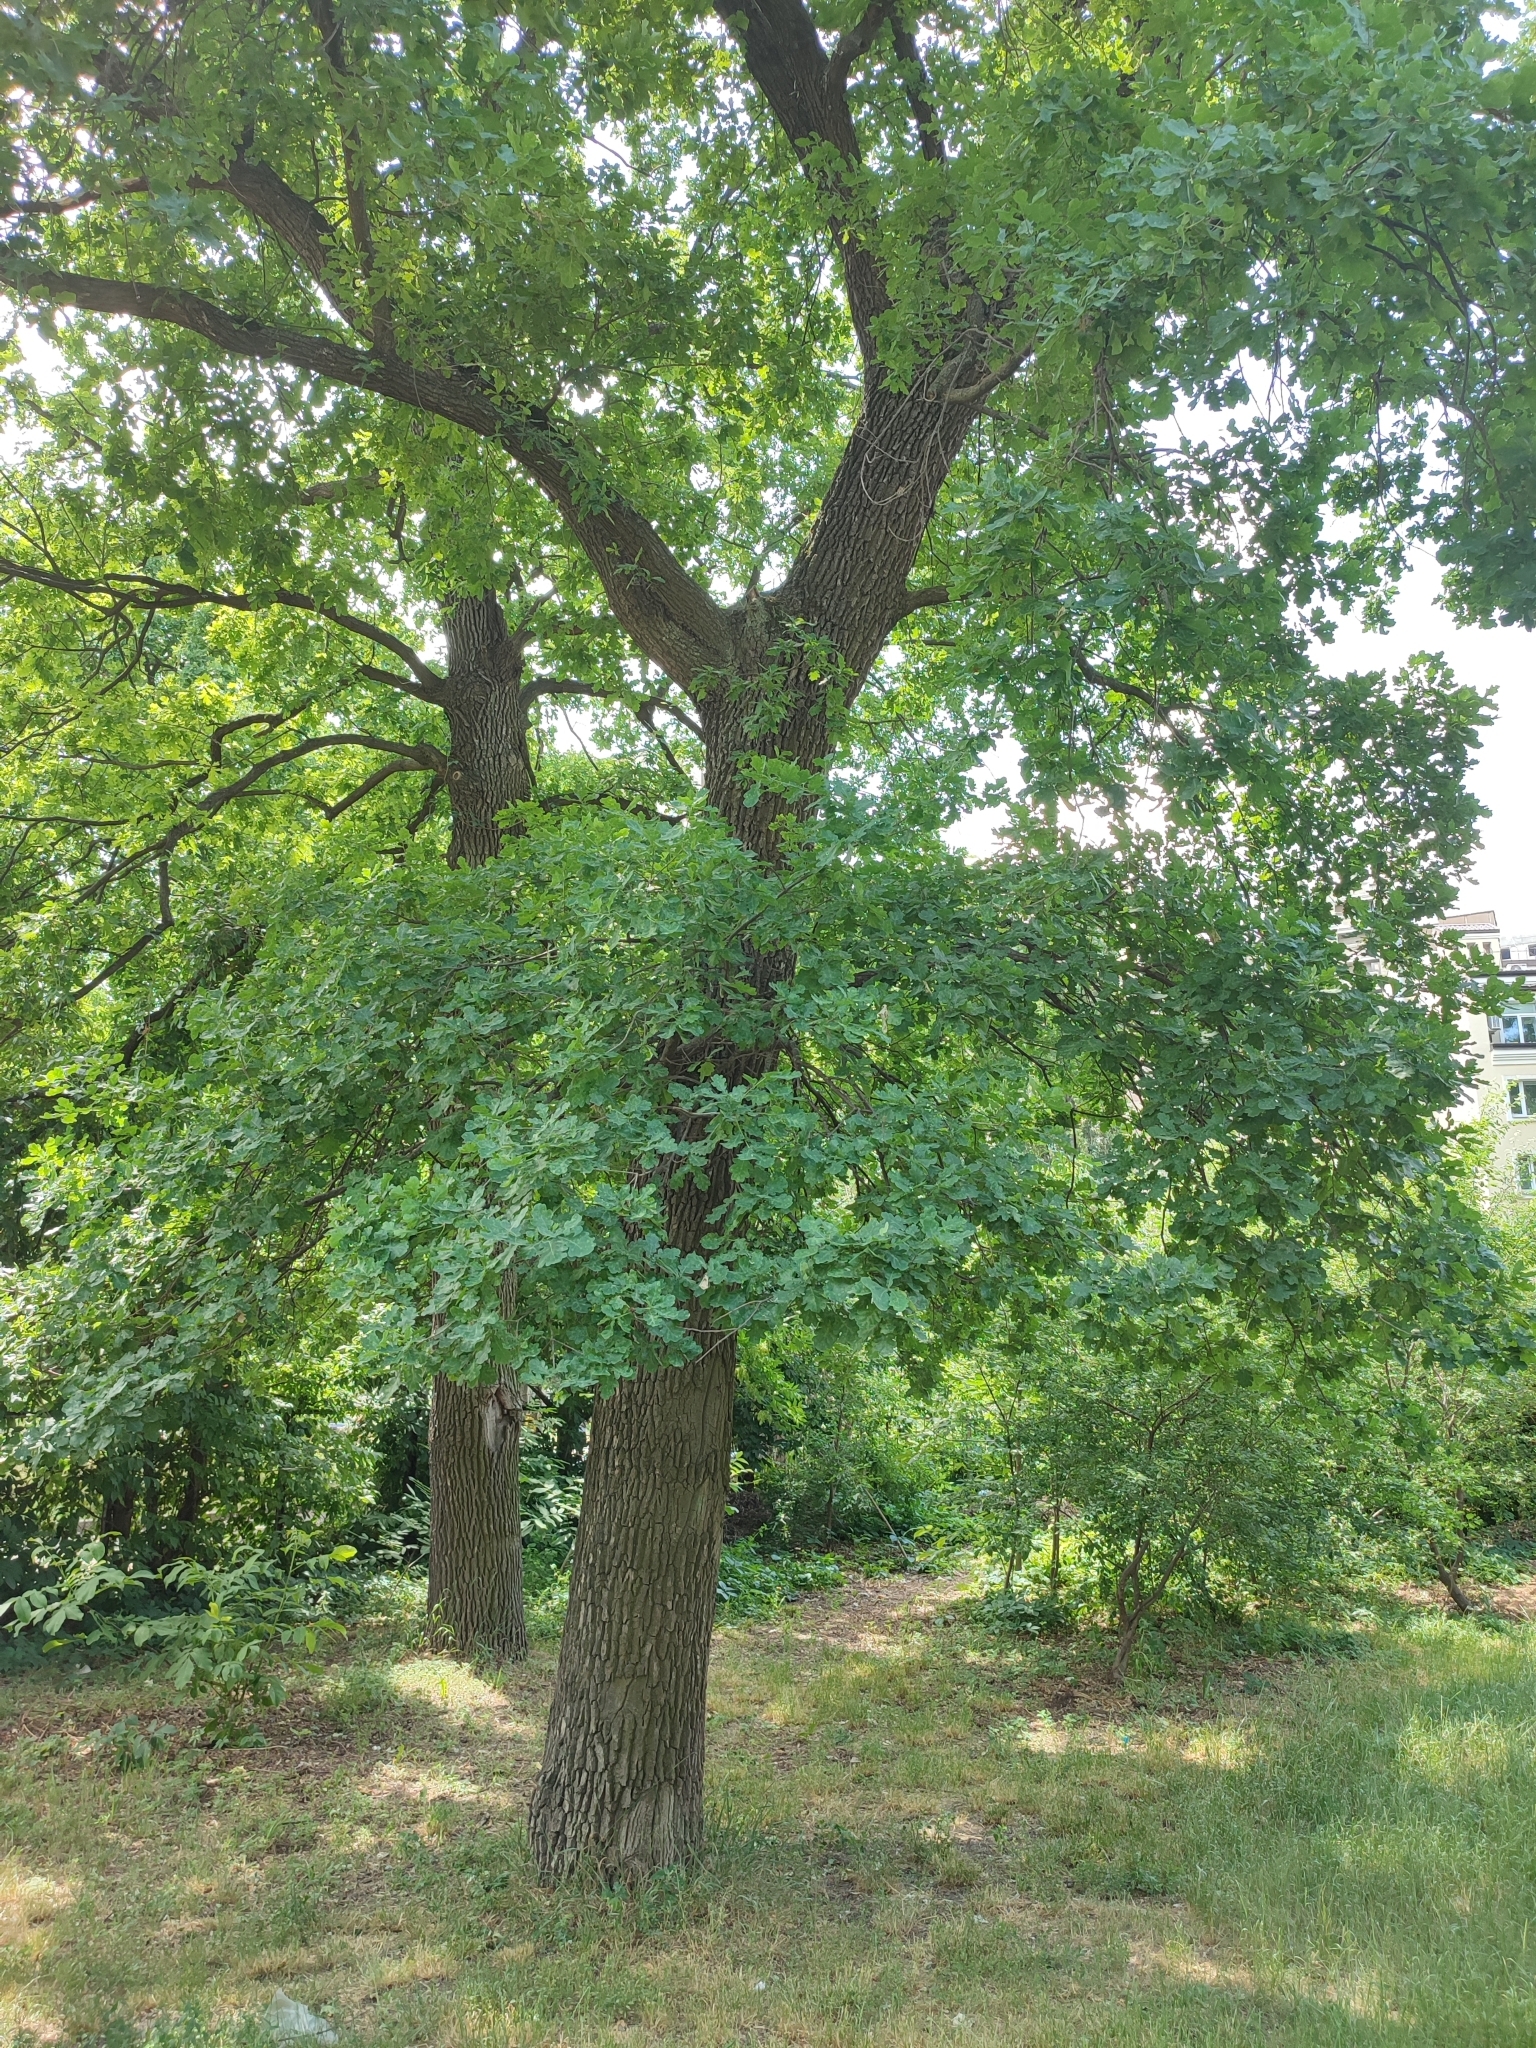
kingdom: Plantae
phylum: Tracheophyta
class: Magnoliopsida
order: Fagales
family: Fagaceae
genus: Quercus
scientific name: Quercus robur
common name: Pedunculate oak
